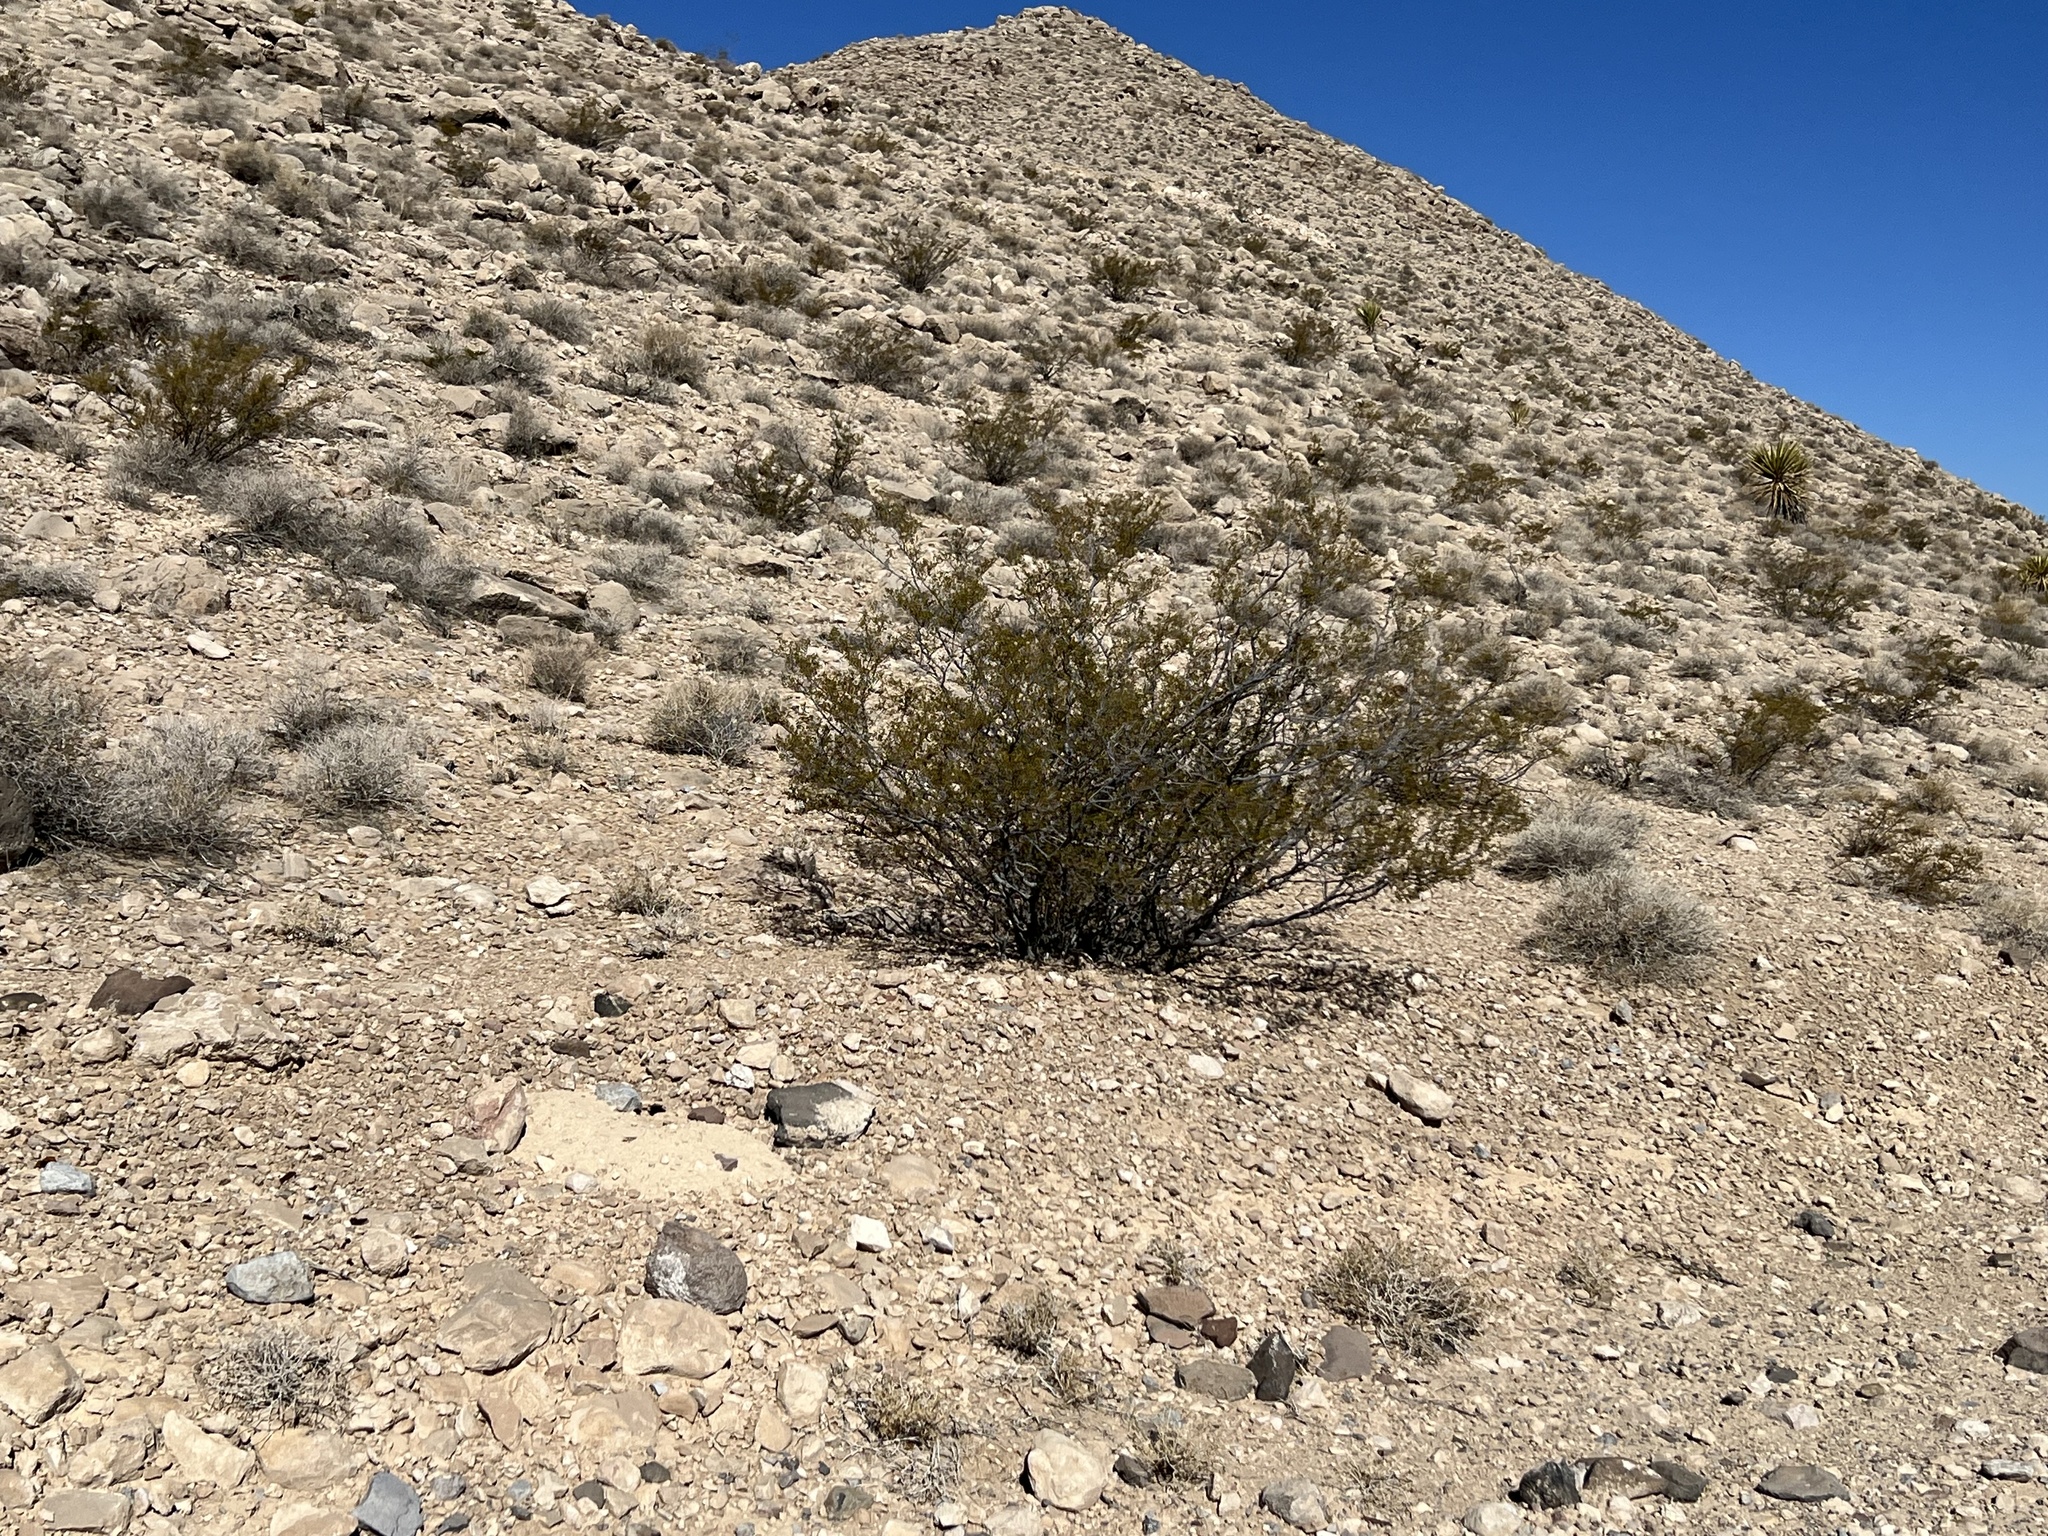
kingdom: Plantae
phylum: Tracheophyta
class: Magnoliopsida
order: Zygophyllales
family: Zygophyllaceae
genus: Larrea
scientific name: Larrea tridentata
